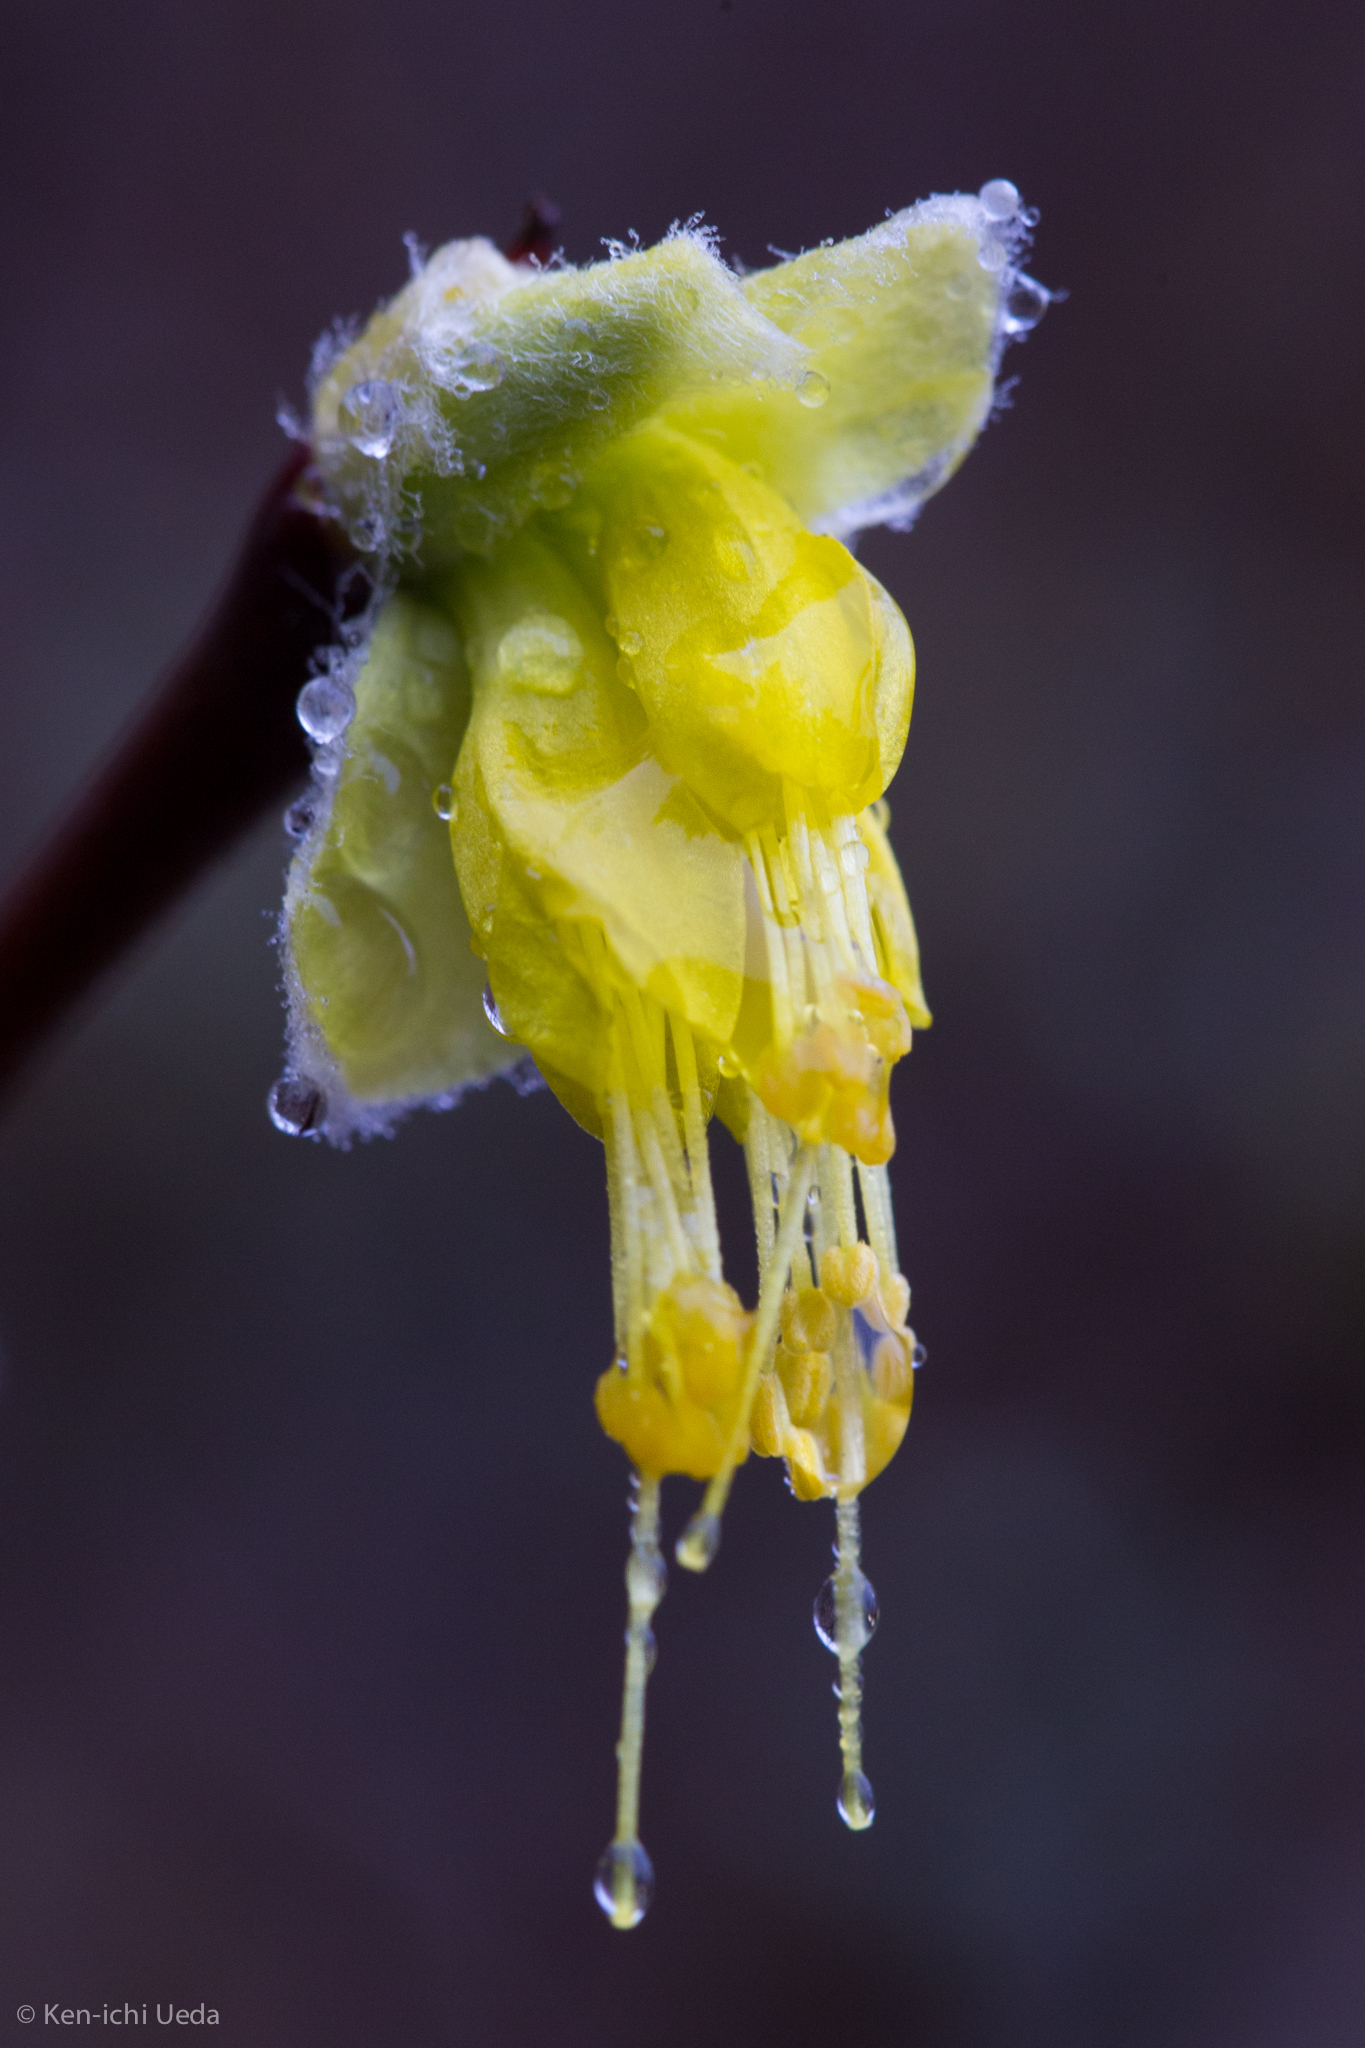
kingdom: Plantae
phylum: Tracheophyta
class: Magnoliopsida
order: Malvales
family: Thymelaeaceae
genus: Dirca
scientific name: Dirca occidentalis
